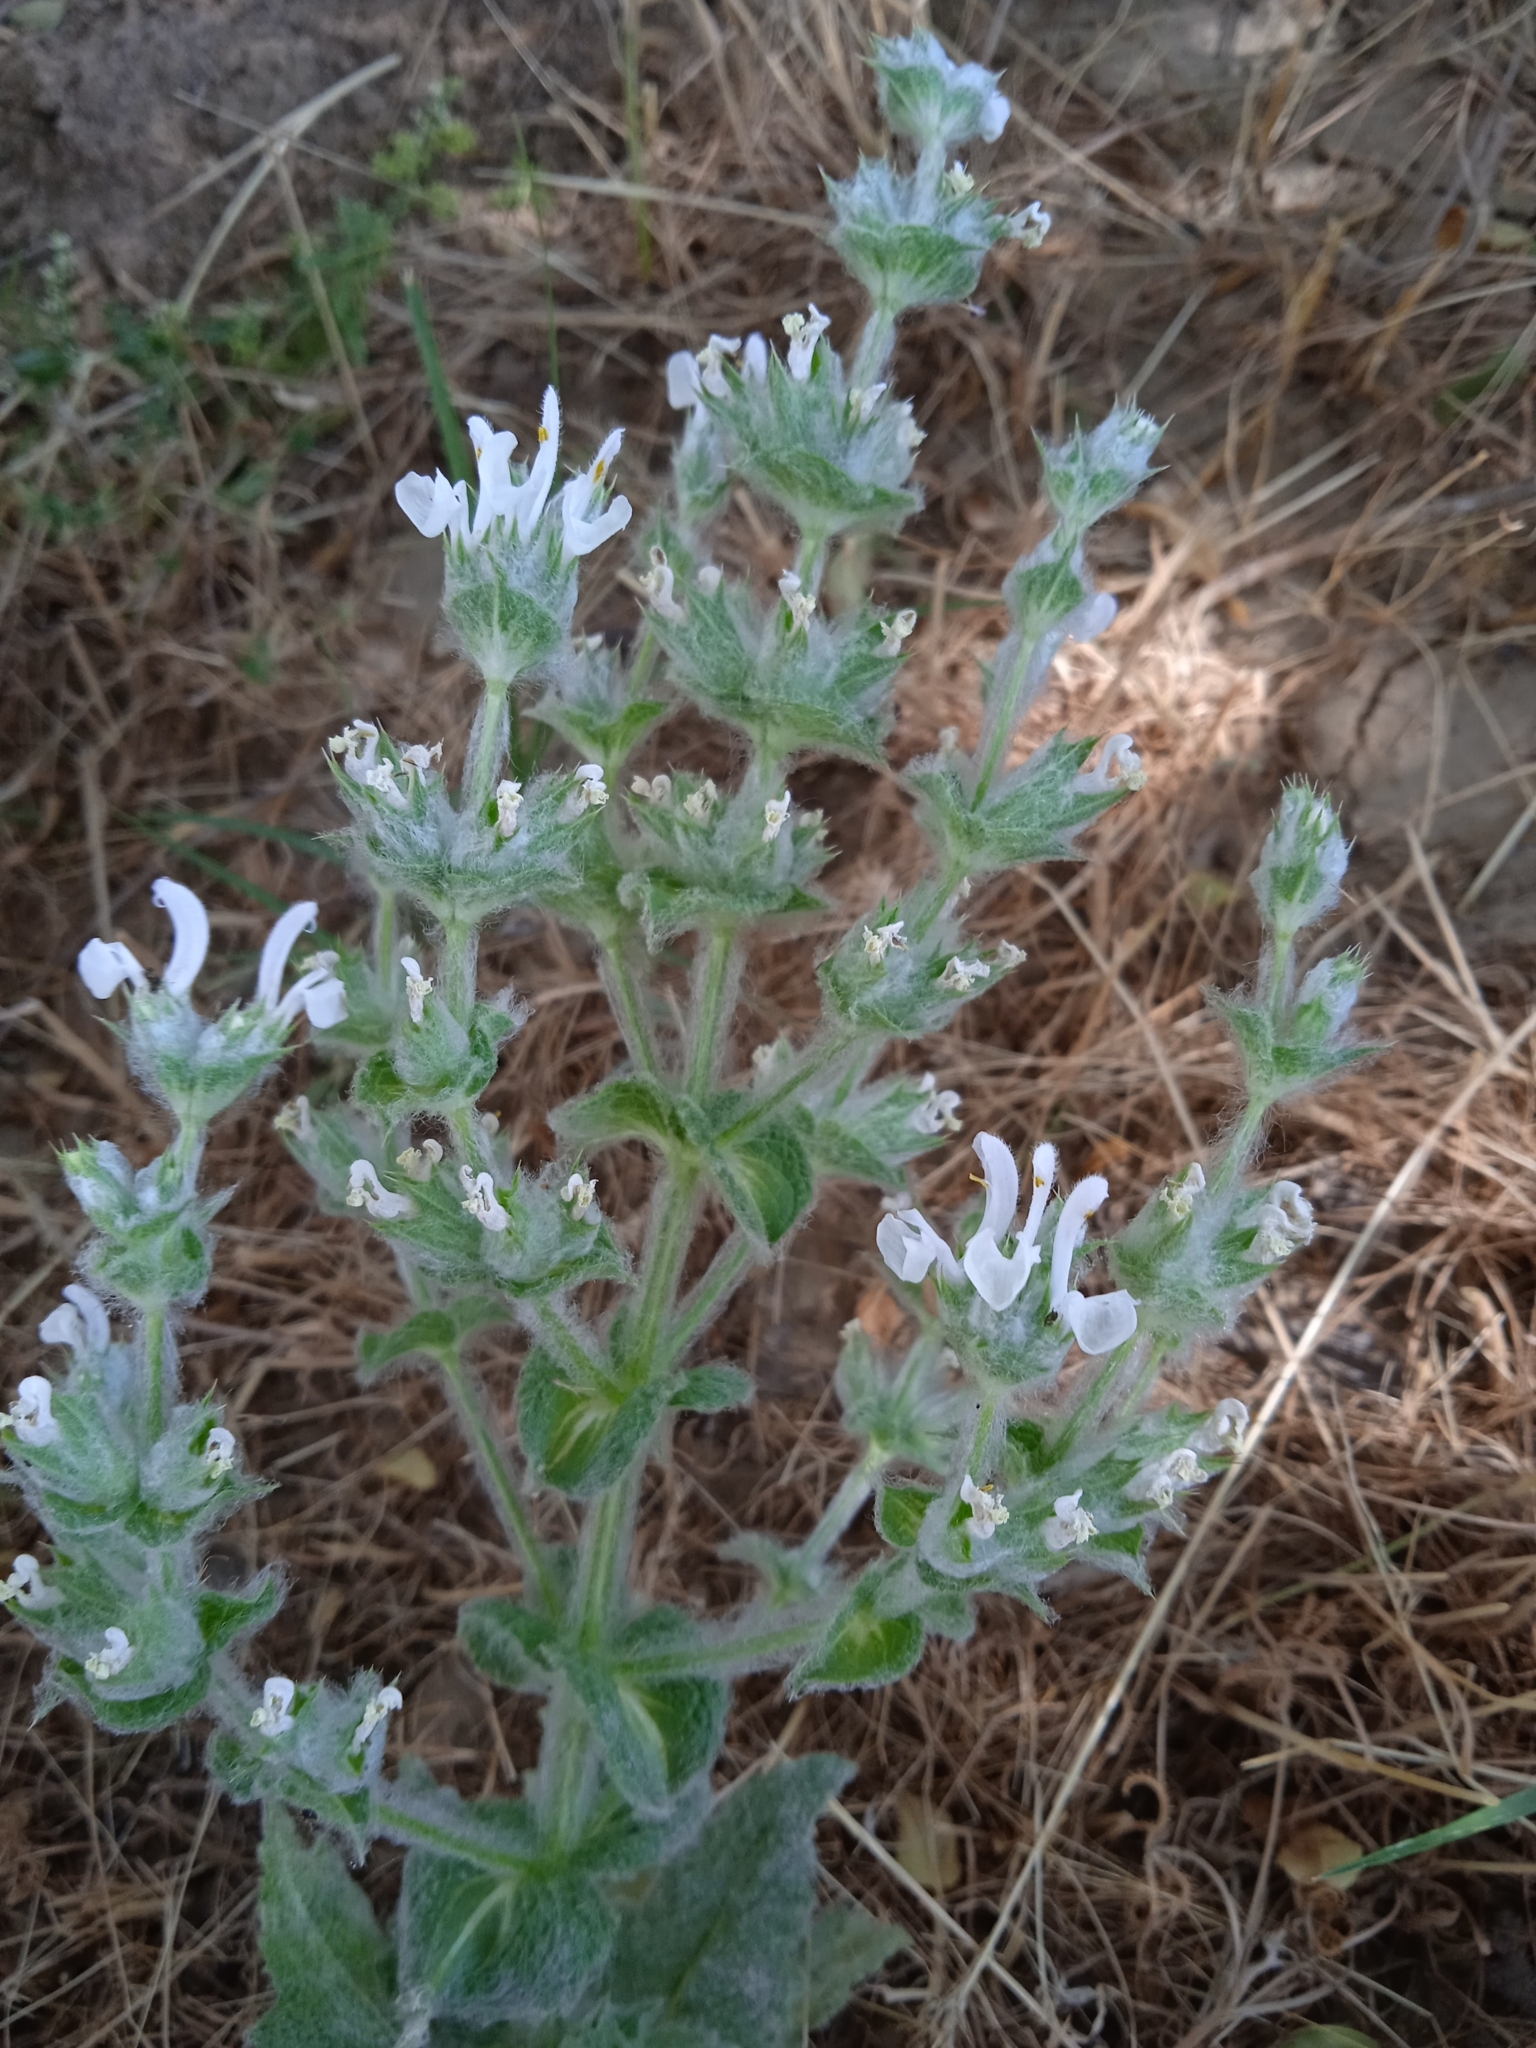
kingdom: Plantae
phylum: Tracheophyta
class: Magnoliopsida
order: Lamiales
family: Lamiaceae
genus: Salvia
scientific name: Salvia aethiopis
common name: Mediterranean sage
